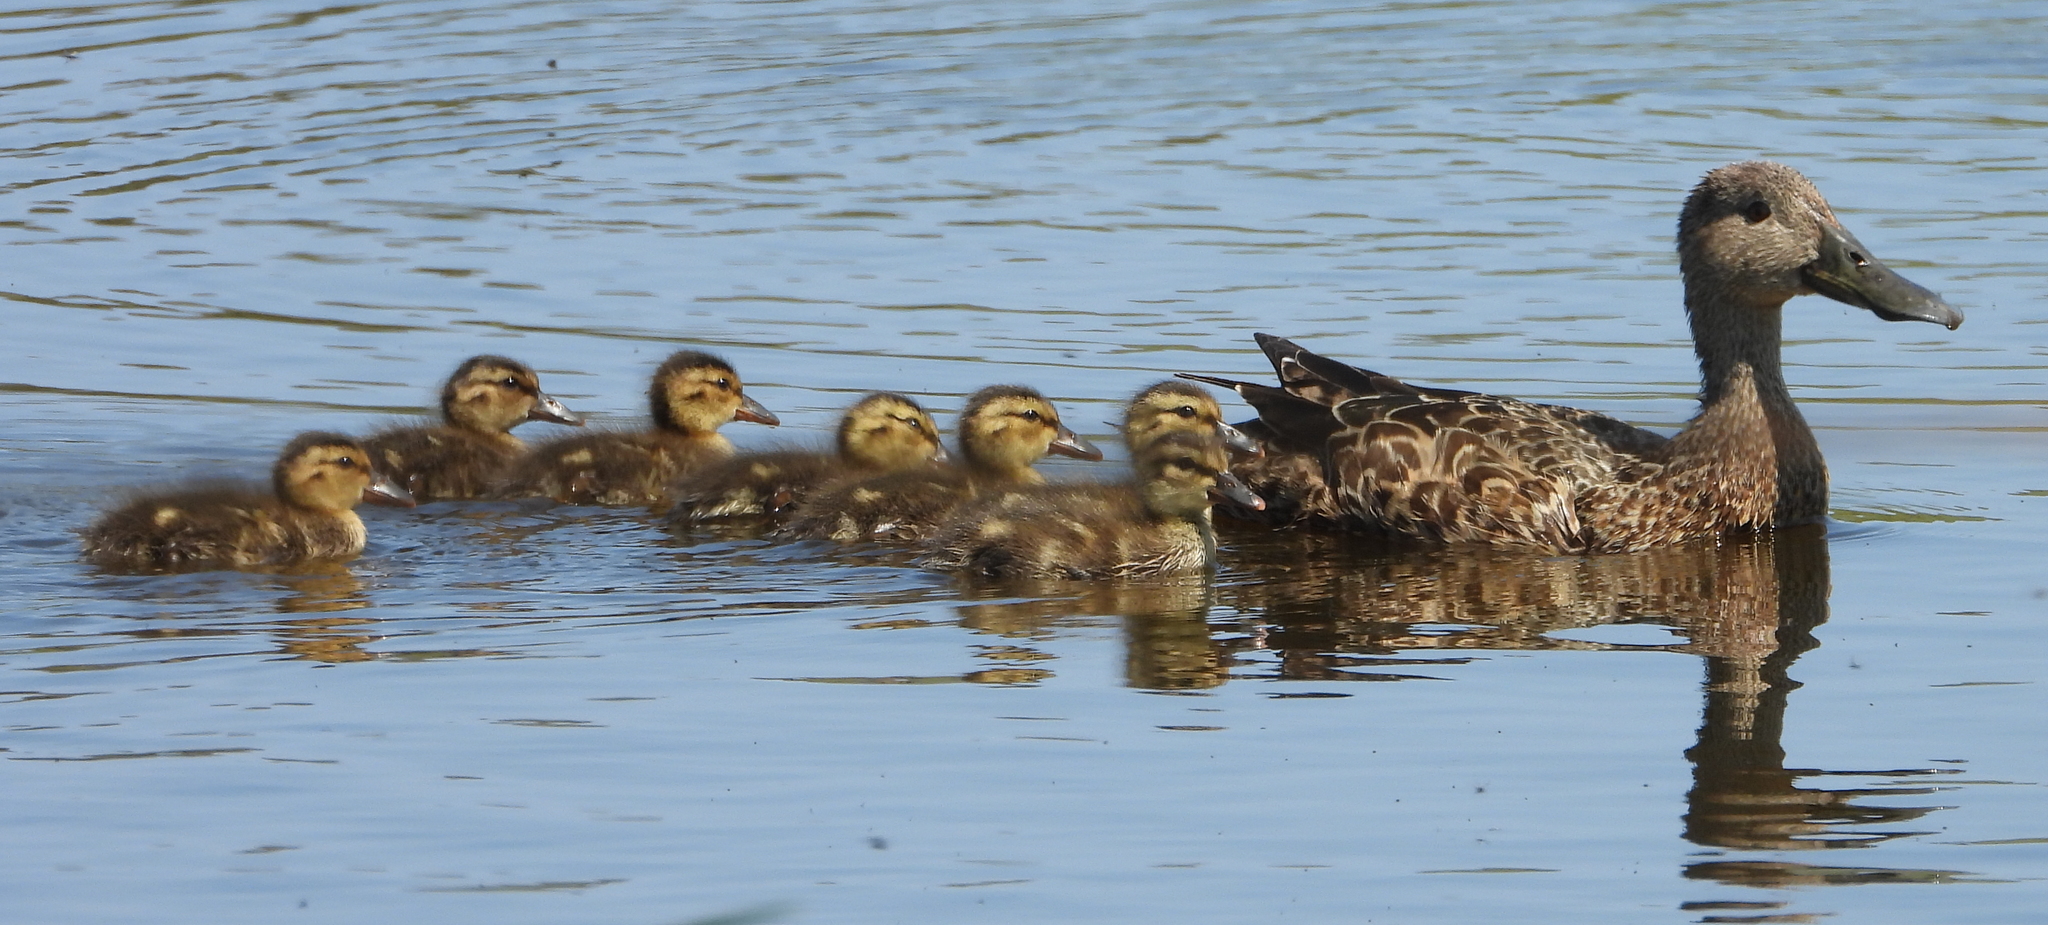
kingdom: Animalia
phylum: Chordata
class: Aves
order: Anseriformes
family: Anatidae
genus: Spatula
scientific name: Spatula smithii
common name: Cape shoveler
